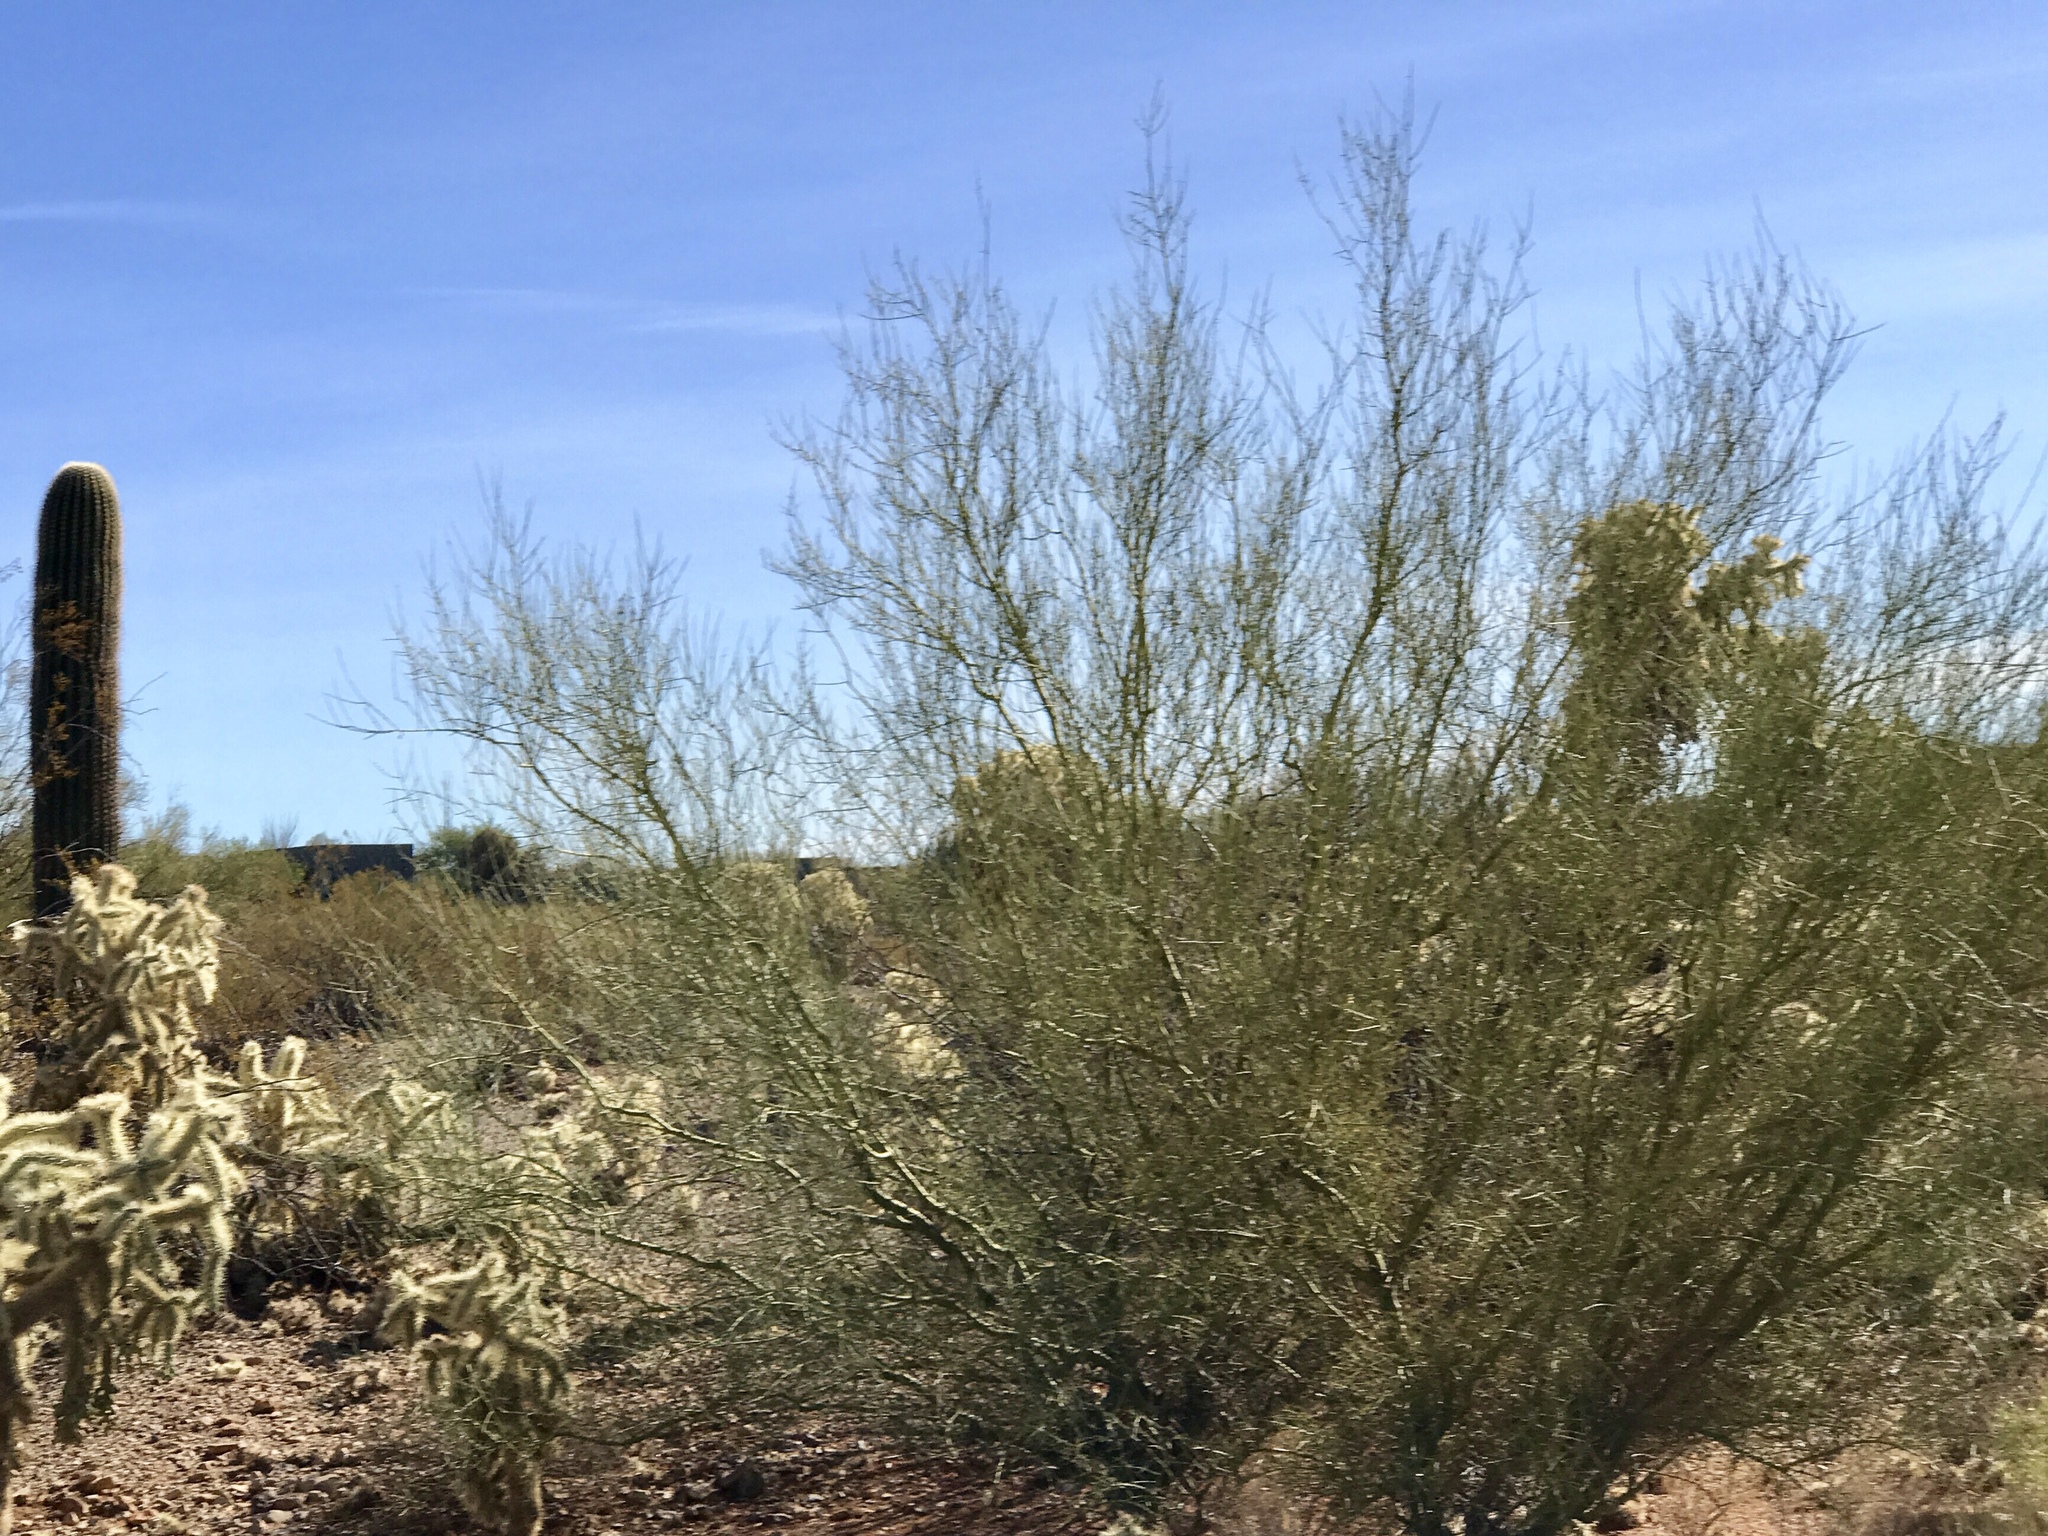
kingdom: Plantae
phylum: Tracheophyta
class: Magnoliopsida
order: Fabales
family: Fabaceae
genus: Parkinsonia
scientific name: Parkinsonia florida
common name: Blue paloverde
